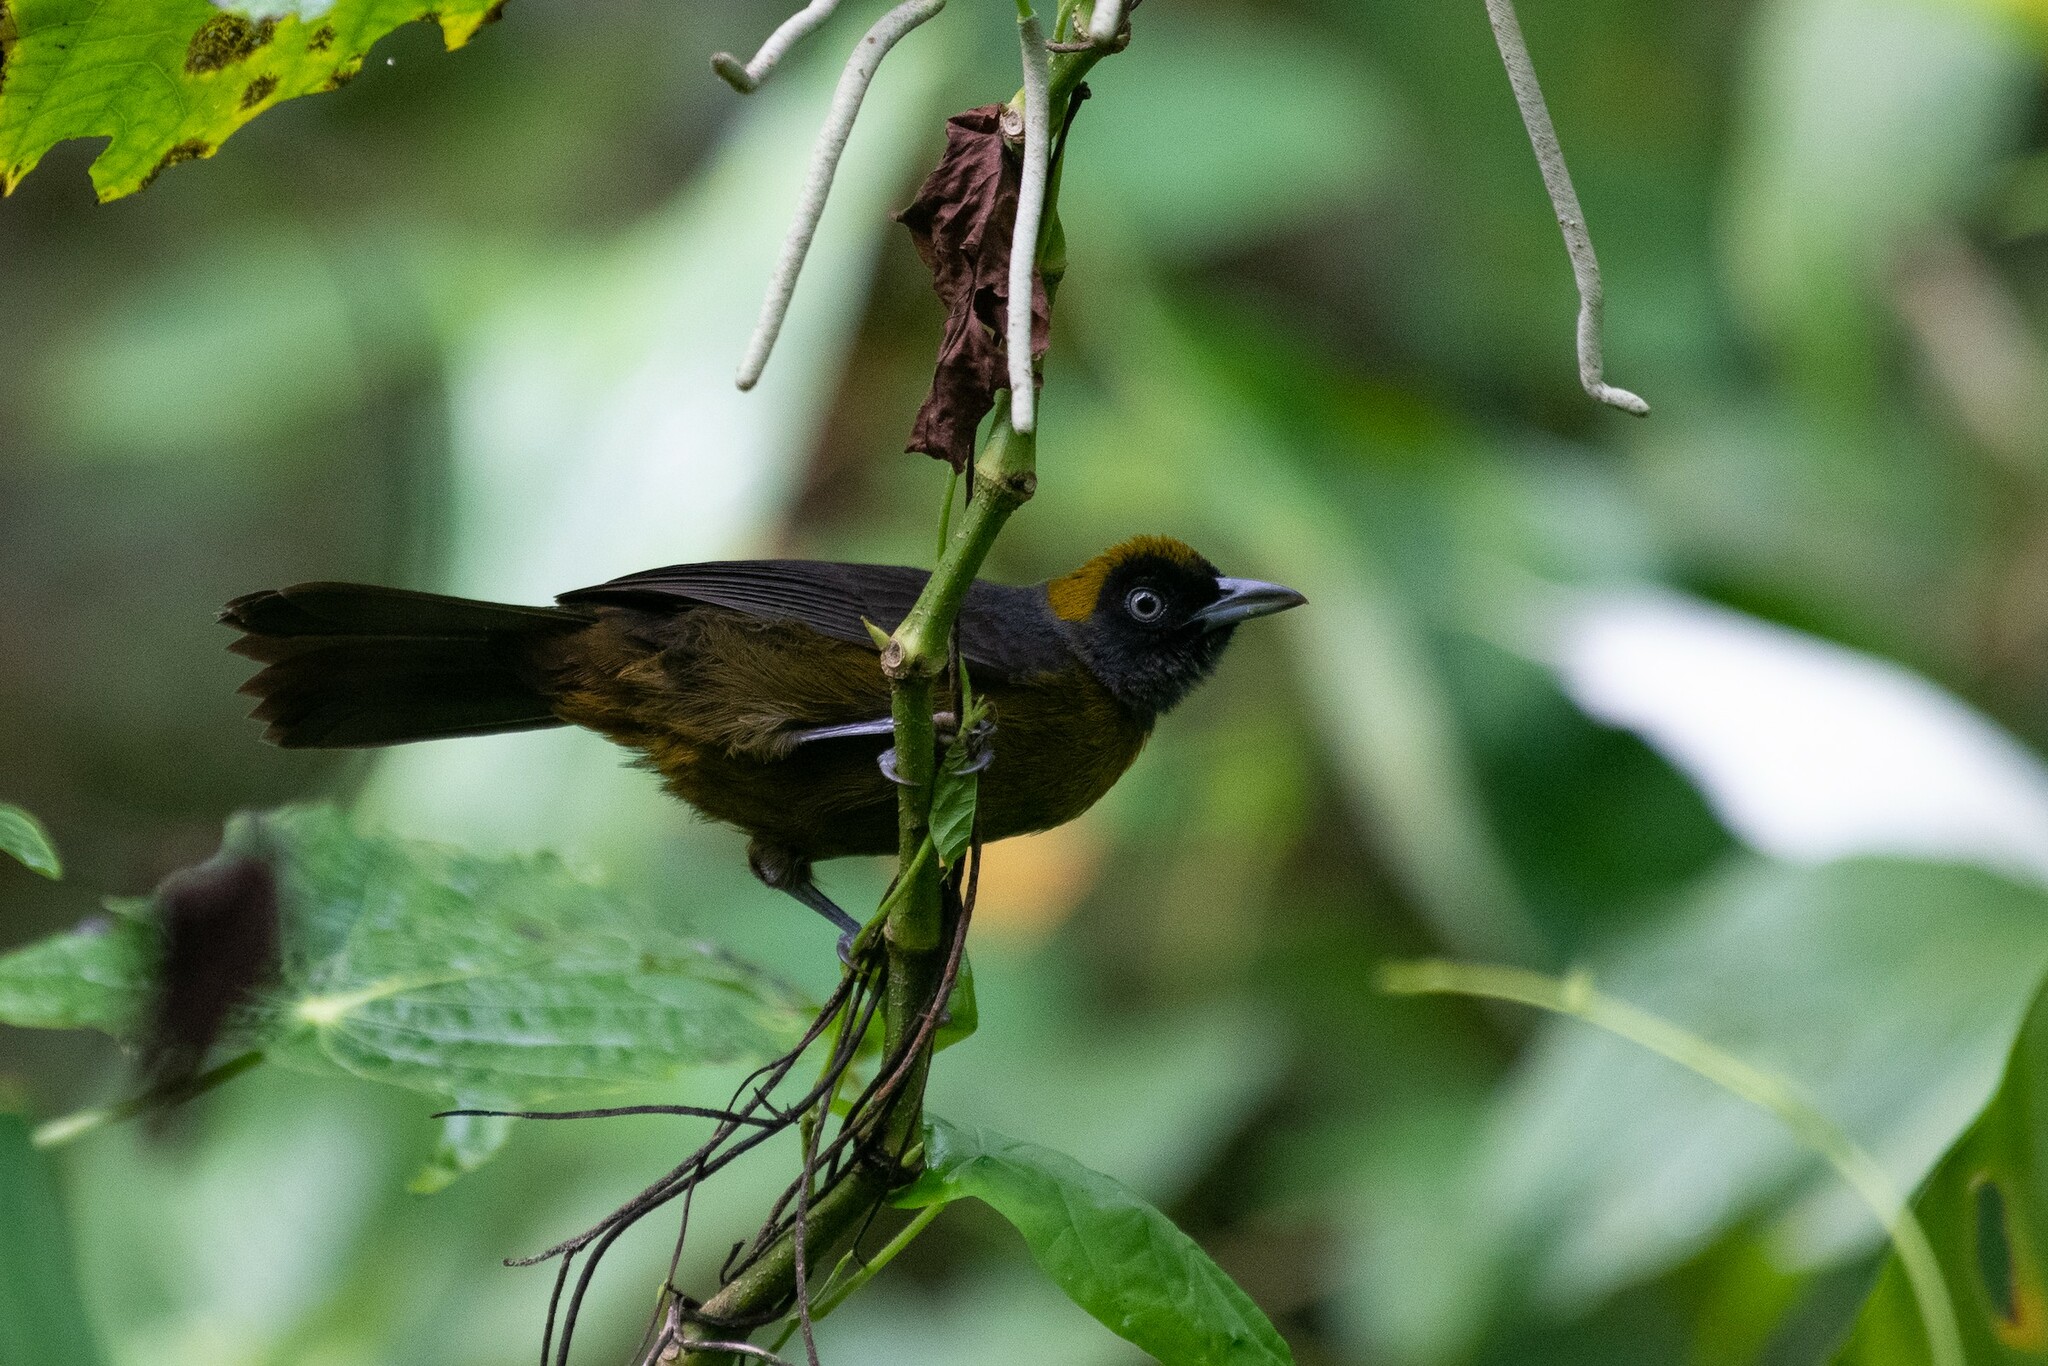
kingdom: Animalia
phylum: Chordata
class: Aves
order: Passeriformes
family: Mitrospingidae
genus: Mitrospingus
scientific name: Mitrospingus cassinii
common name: Dusky-faced tanager
